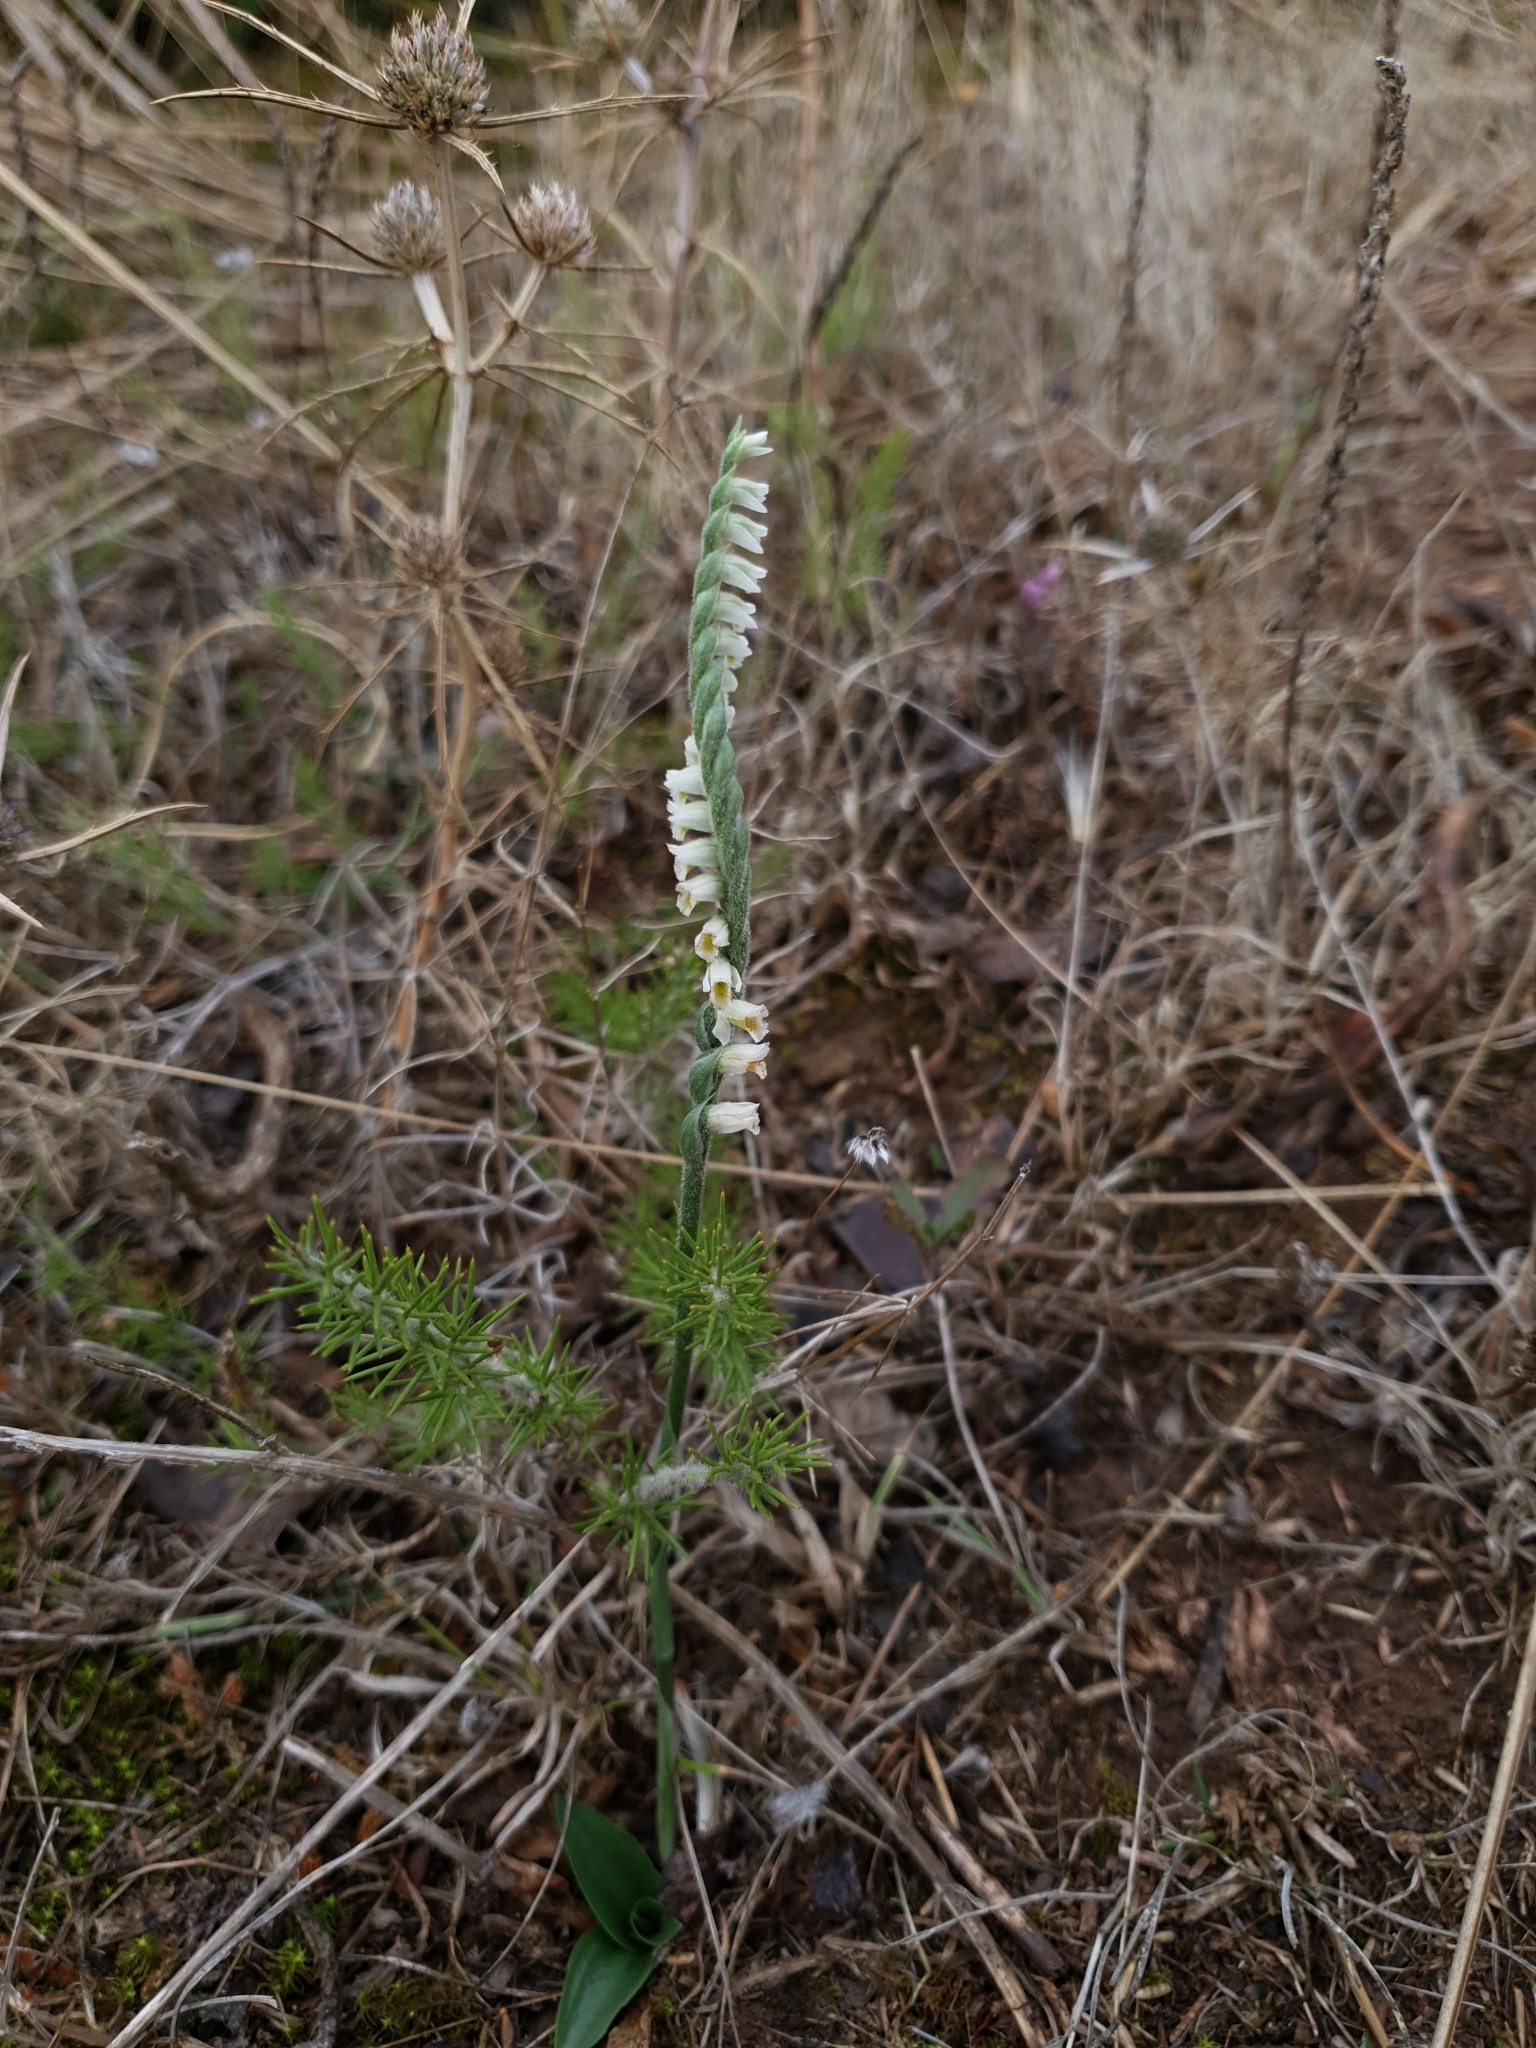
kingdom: Plantae
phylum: Tracheophyta
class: Liliopsida
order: Asparagales
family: Orchidaceae
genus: Spiranthes
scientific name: Spiranthes spiralis
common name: Autumn lady's-tresses
